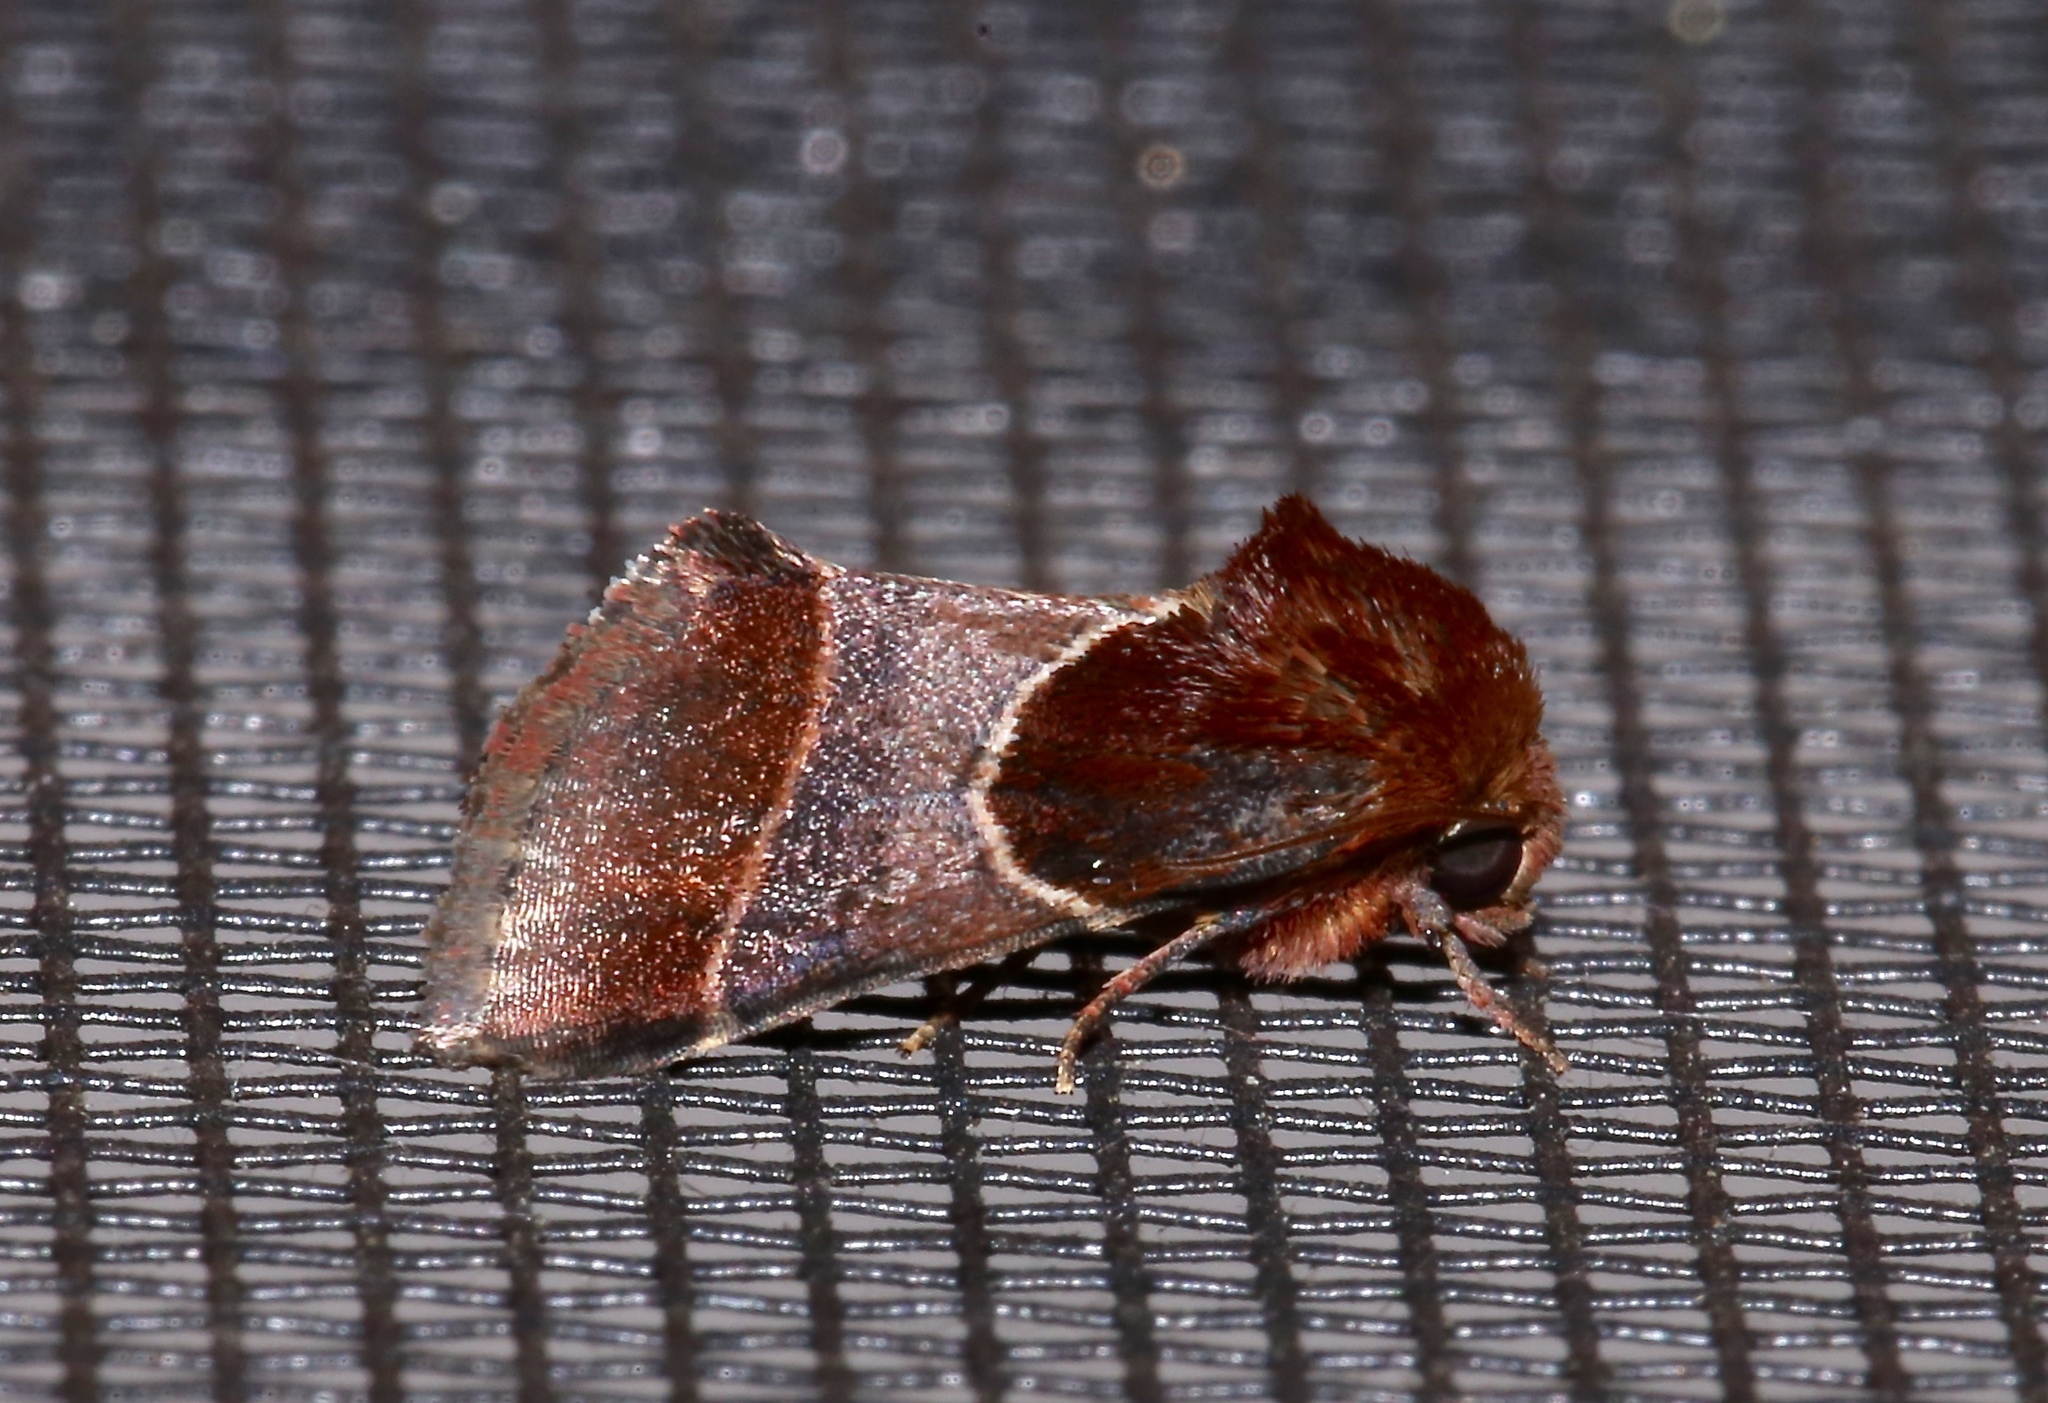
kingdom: Animalia
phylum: Arthropoda
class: Insecta
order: Lepidoptera
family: Noctuidae
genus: Schinia
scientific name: Schinia arcigera
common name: Arcigera flower moth
